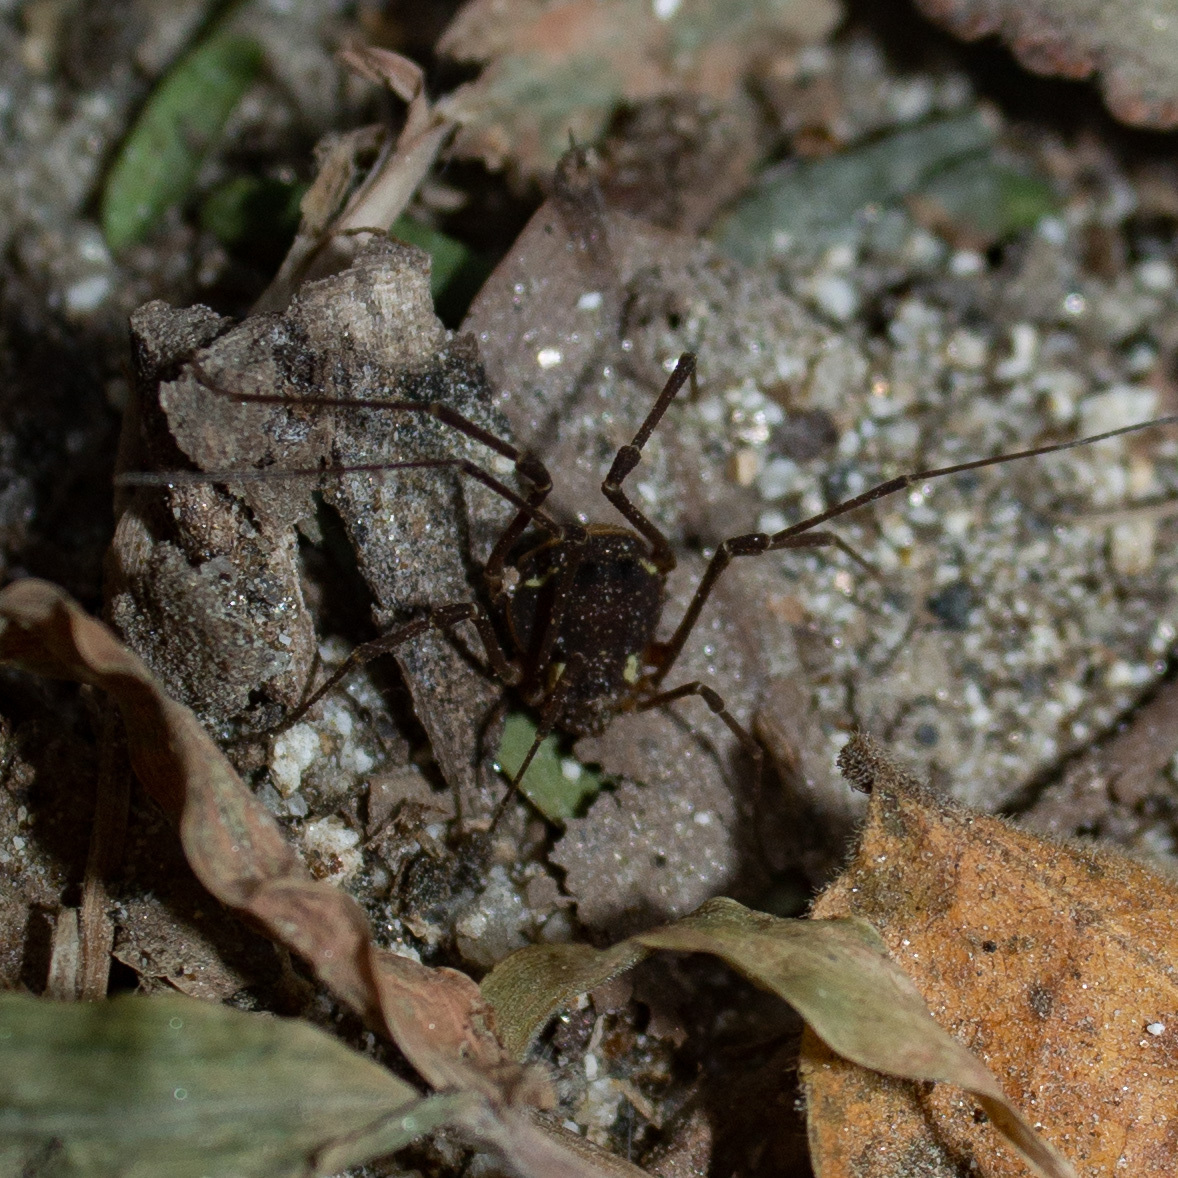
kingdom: Animalia
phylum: Arthropoda
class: Arachnida
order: Opiliones
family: Cosmetidae
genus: Eucynorta
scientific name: Eucynorta quadripustulata
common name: Harvestmen
